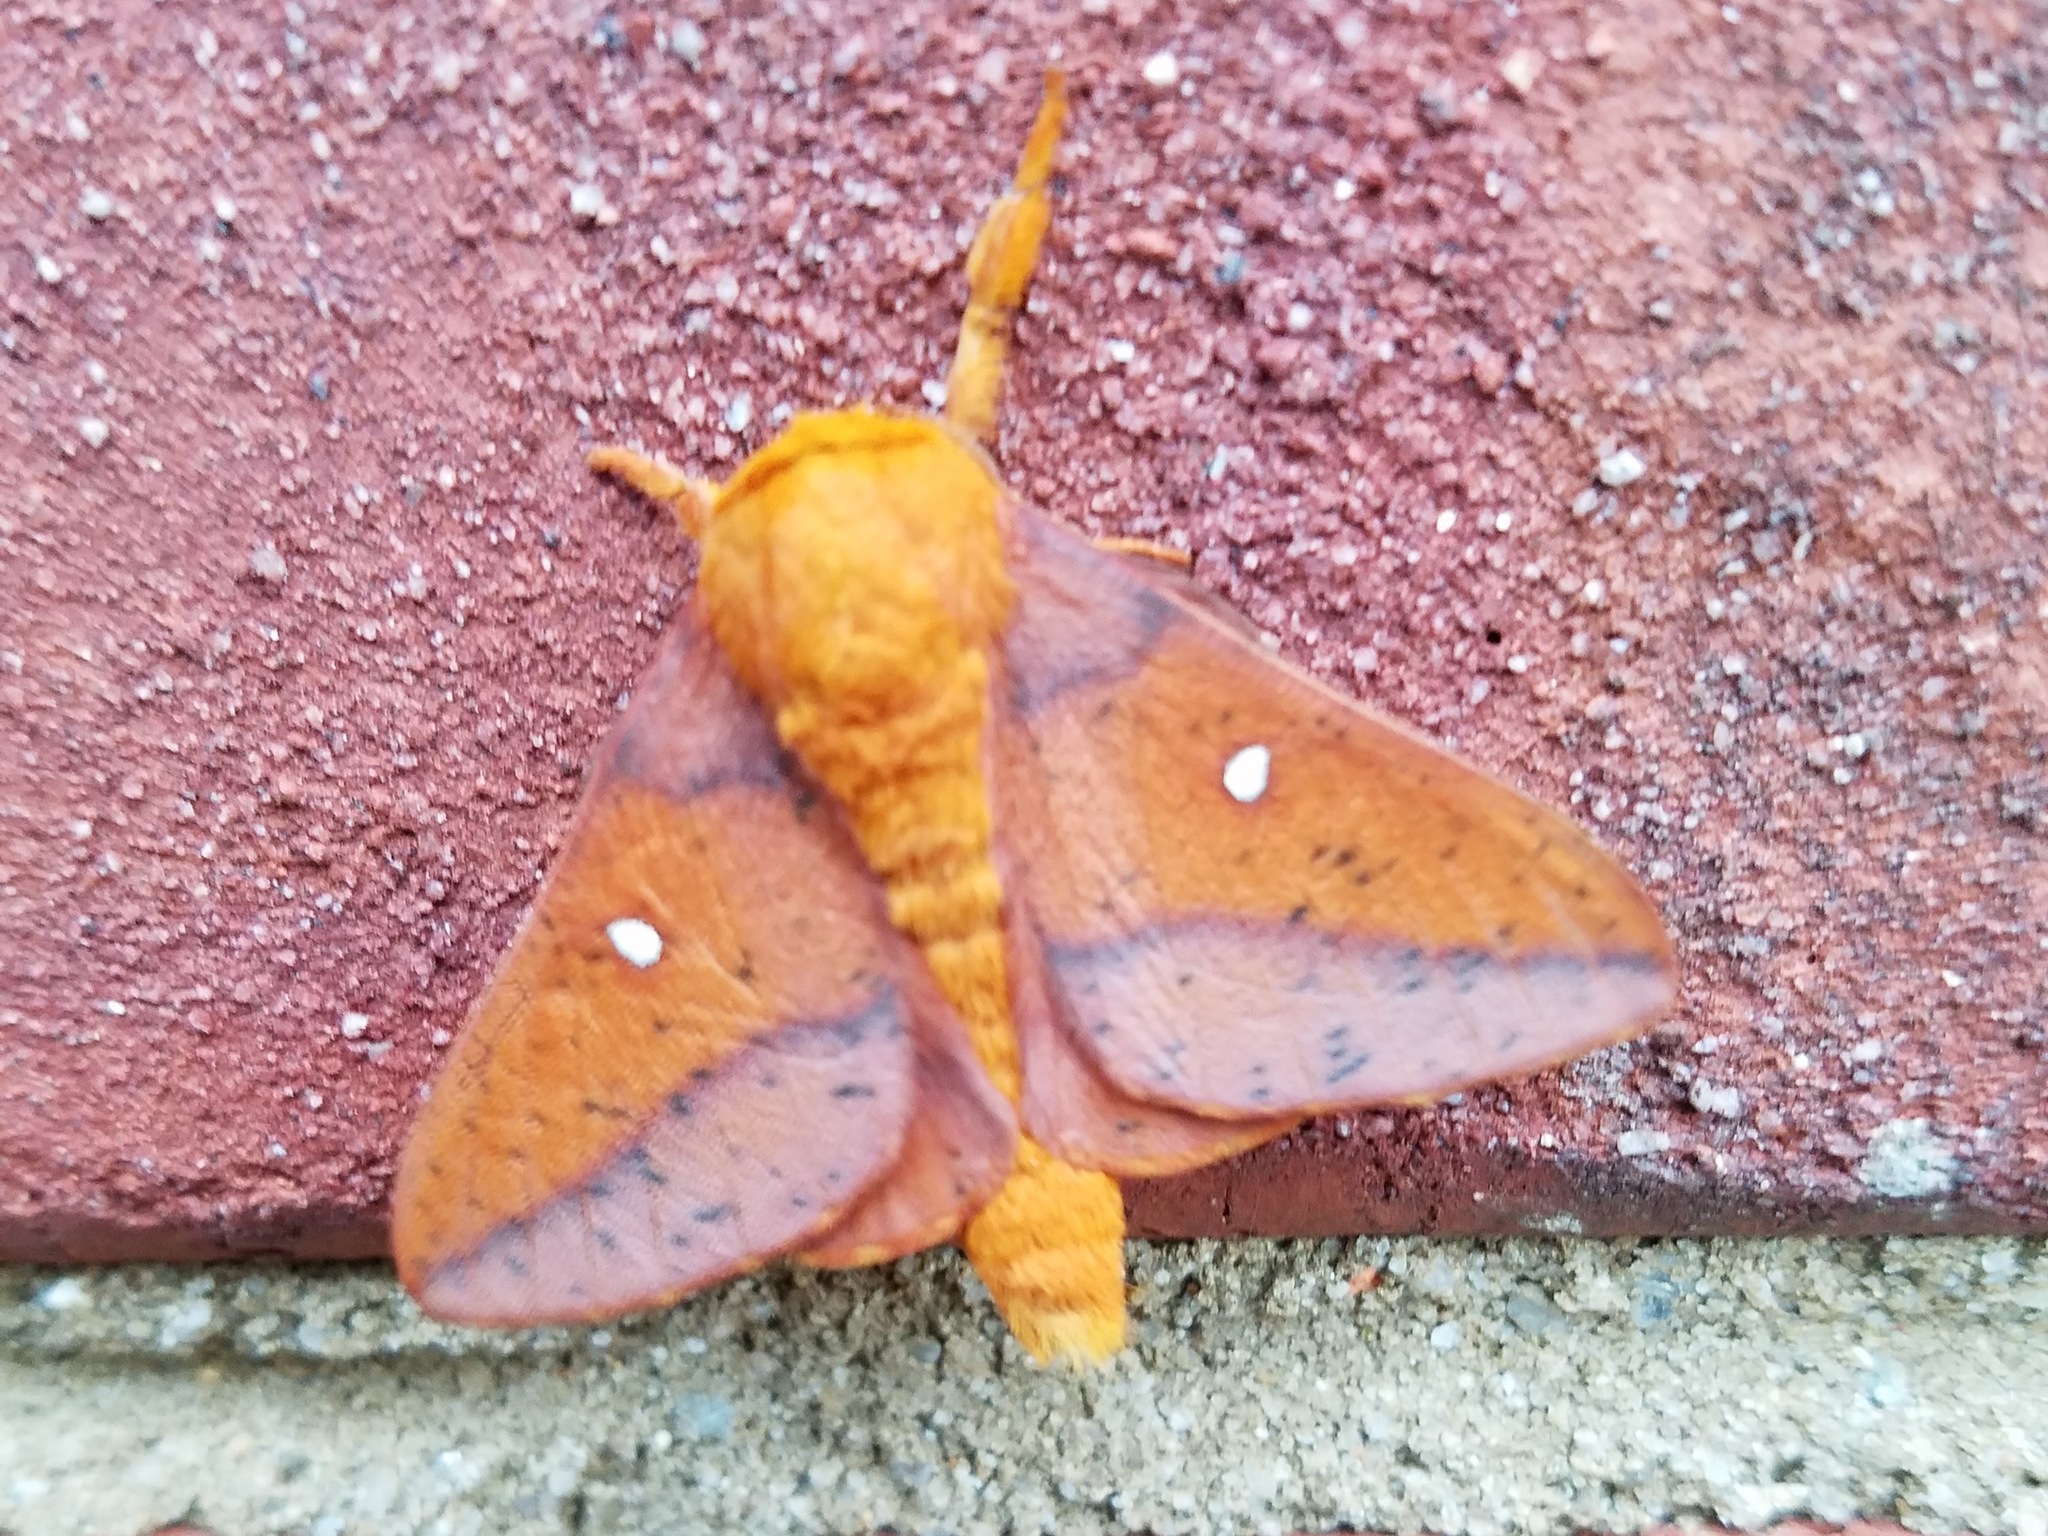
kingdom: Animalia
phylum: Arthropoda
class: Insecta
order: Lepidoptera
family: Saturniidae
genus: Anisota
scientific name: Anisota stigma
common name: Spiny oakworm moth
